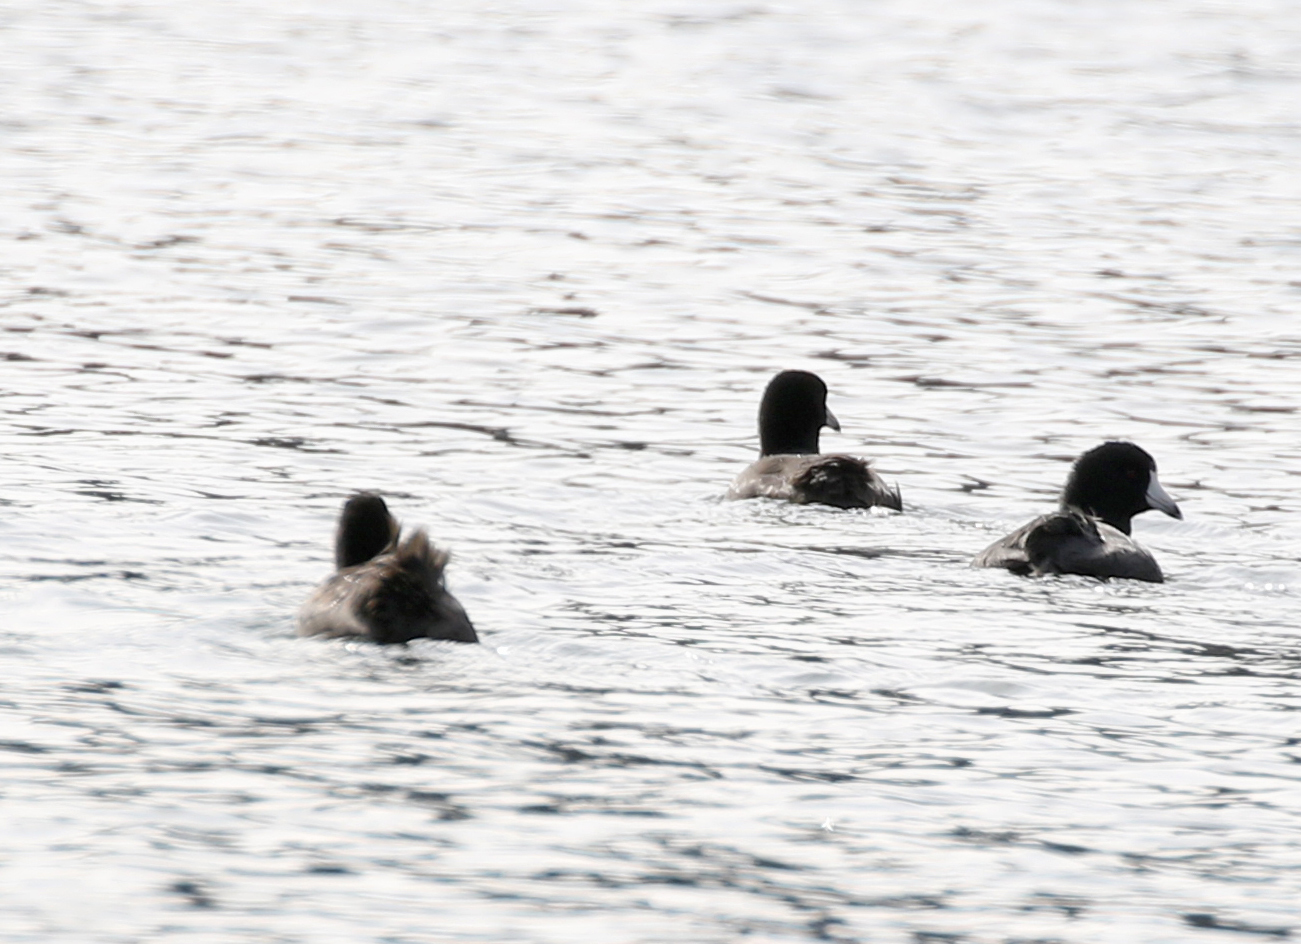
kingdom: Animalia
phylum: Chordata
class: Aves
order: Gruiformes
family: Rallidae
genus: Fulica
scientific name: Fulica americana
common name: American coot
